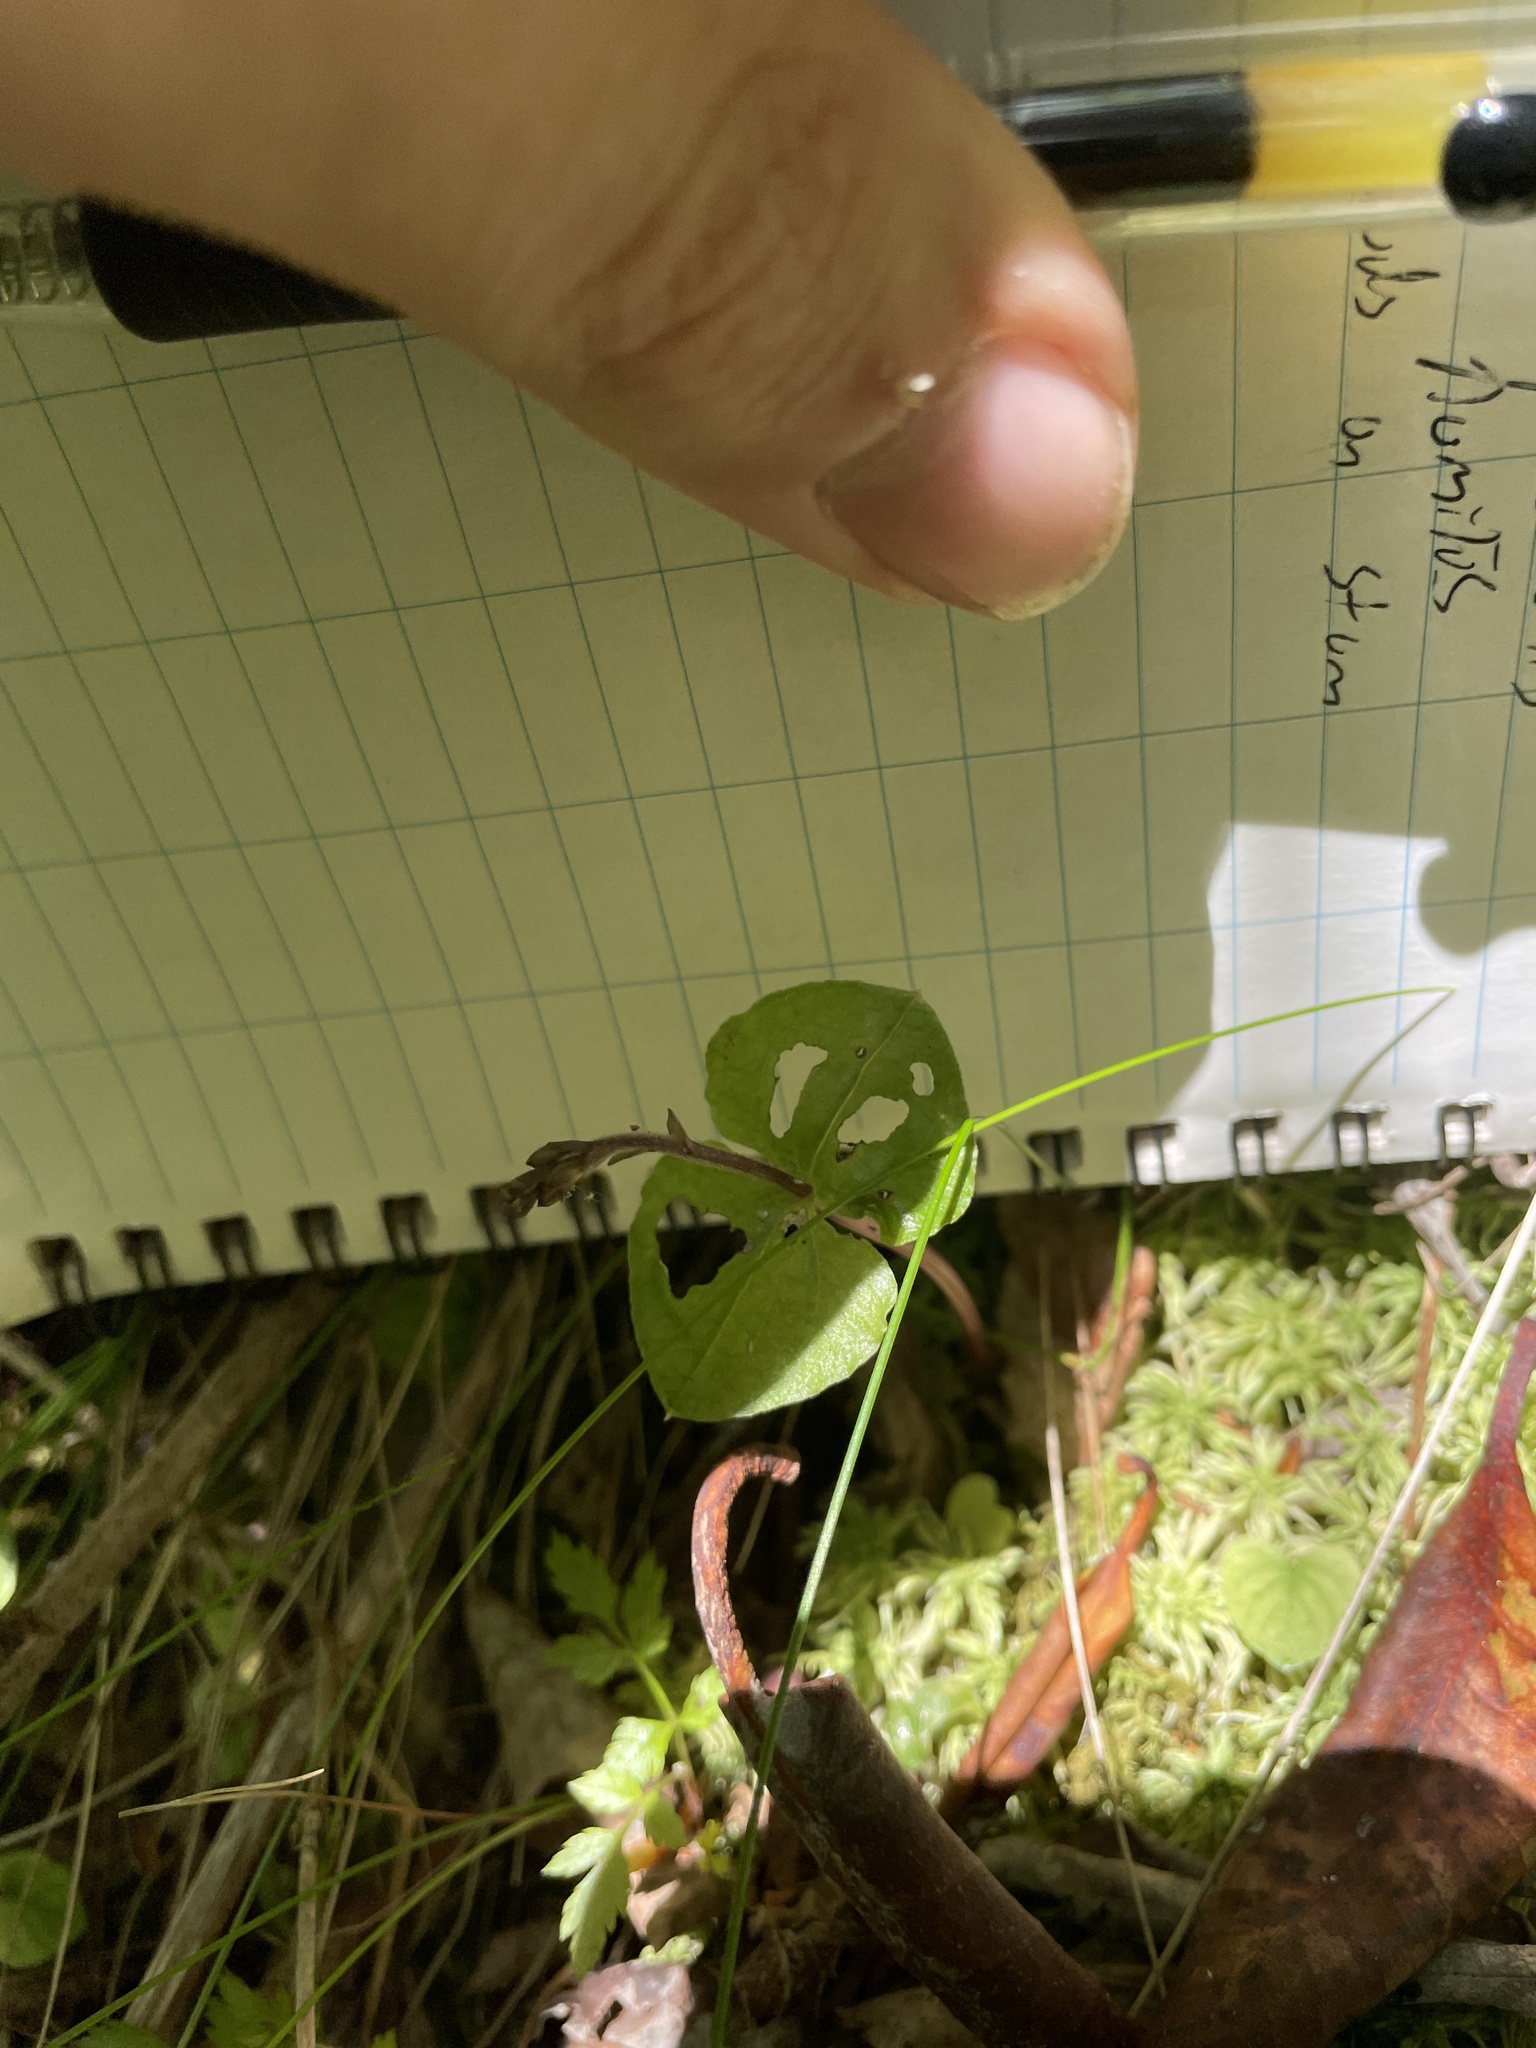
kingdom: Plantae
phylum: Tracheophyta
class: Liliopsida
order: Asparagales
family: Orchidaceae
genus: Neottia
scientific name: Neottia smallii
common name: Kidneyleaf twayblade
